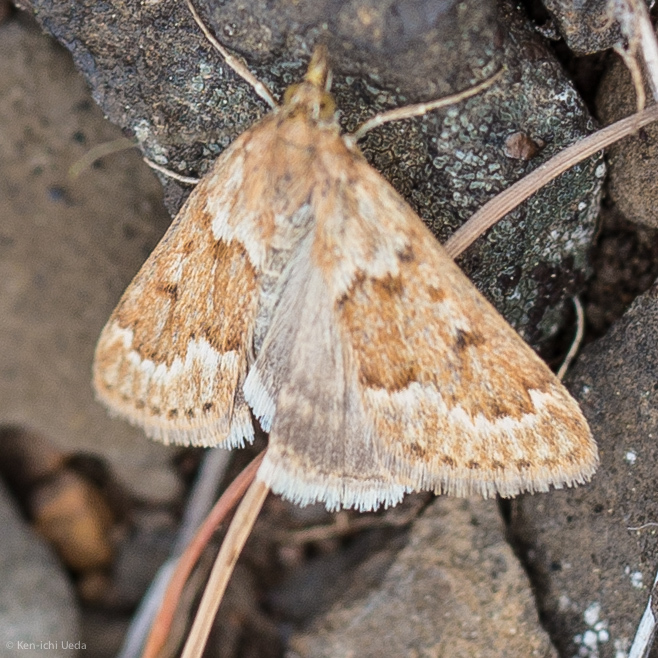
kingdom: Animalia
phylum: Arthropoda
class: Insecta
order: Lepidoptera
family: Crambidae
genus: Achyra
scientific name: Achyra occidentalis
